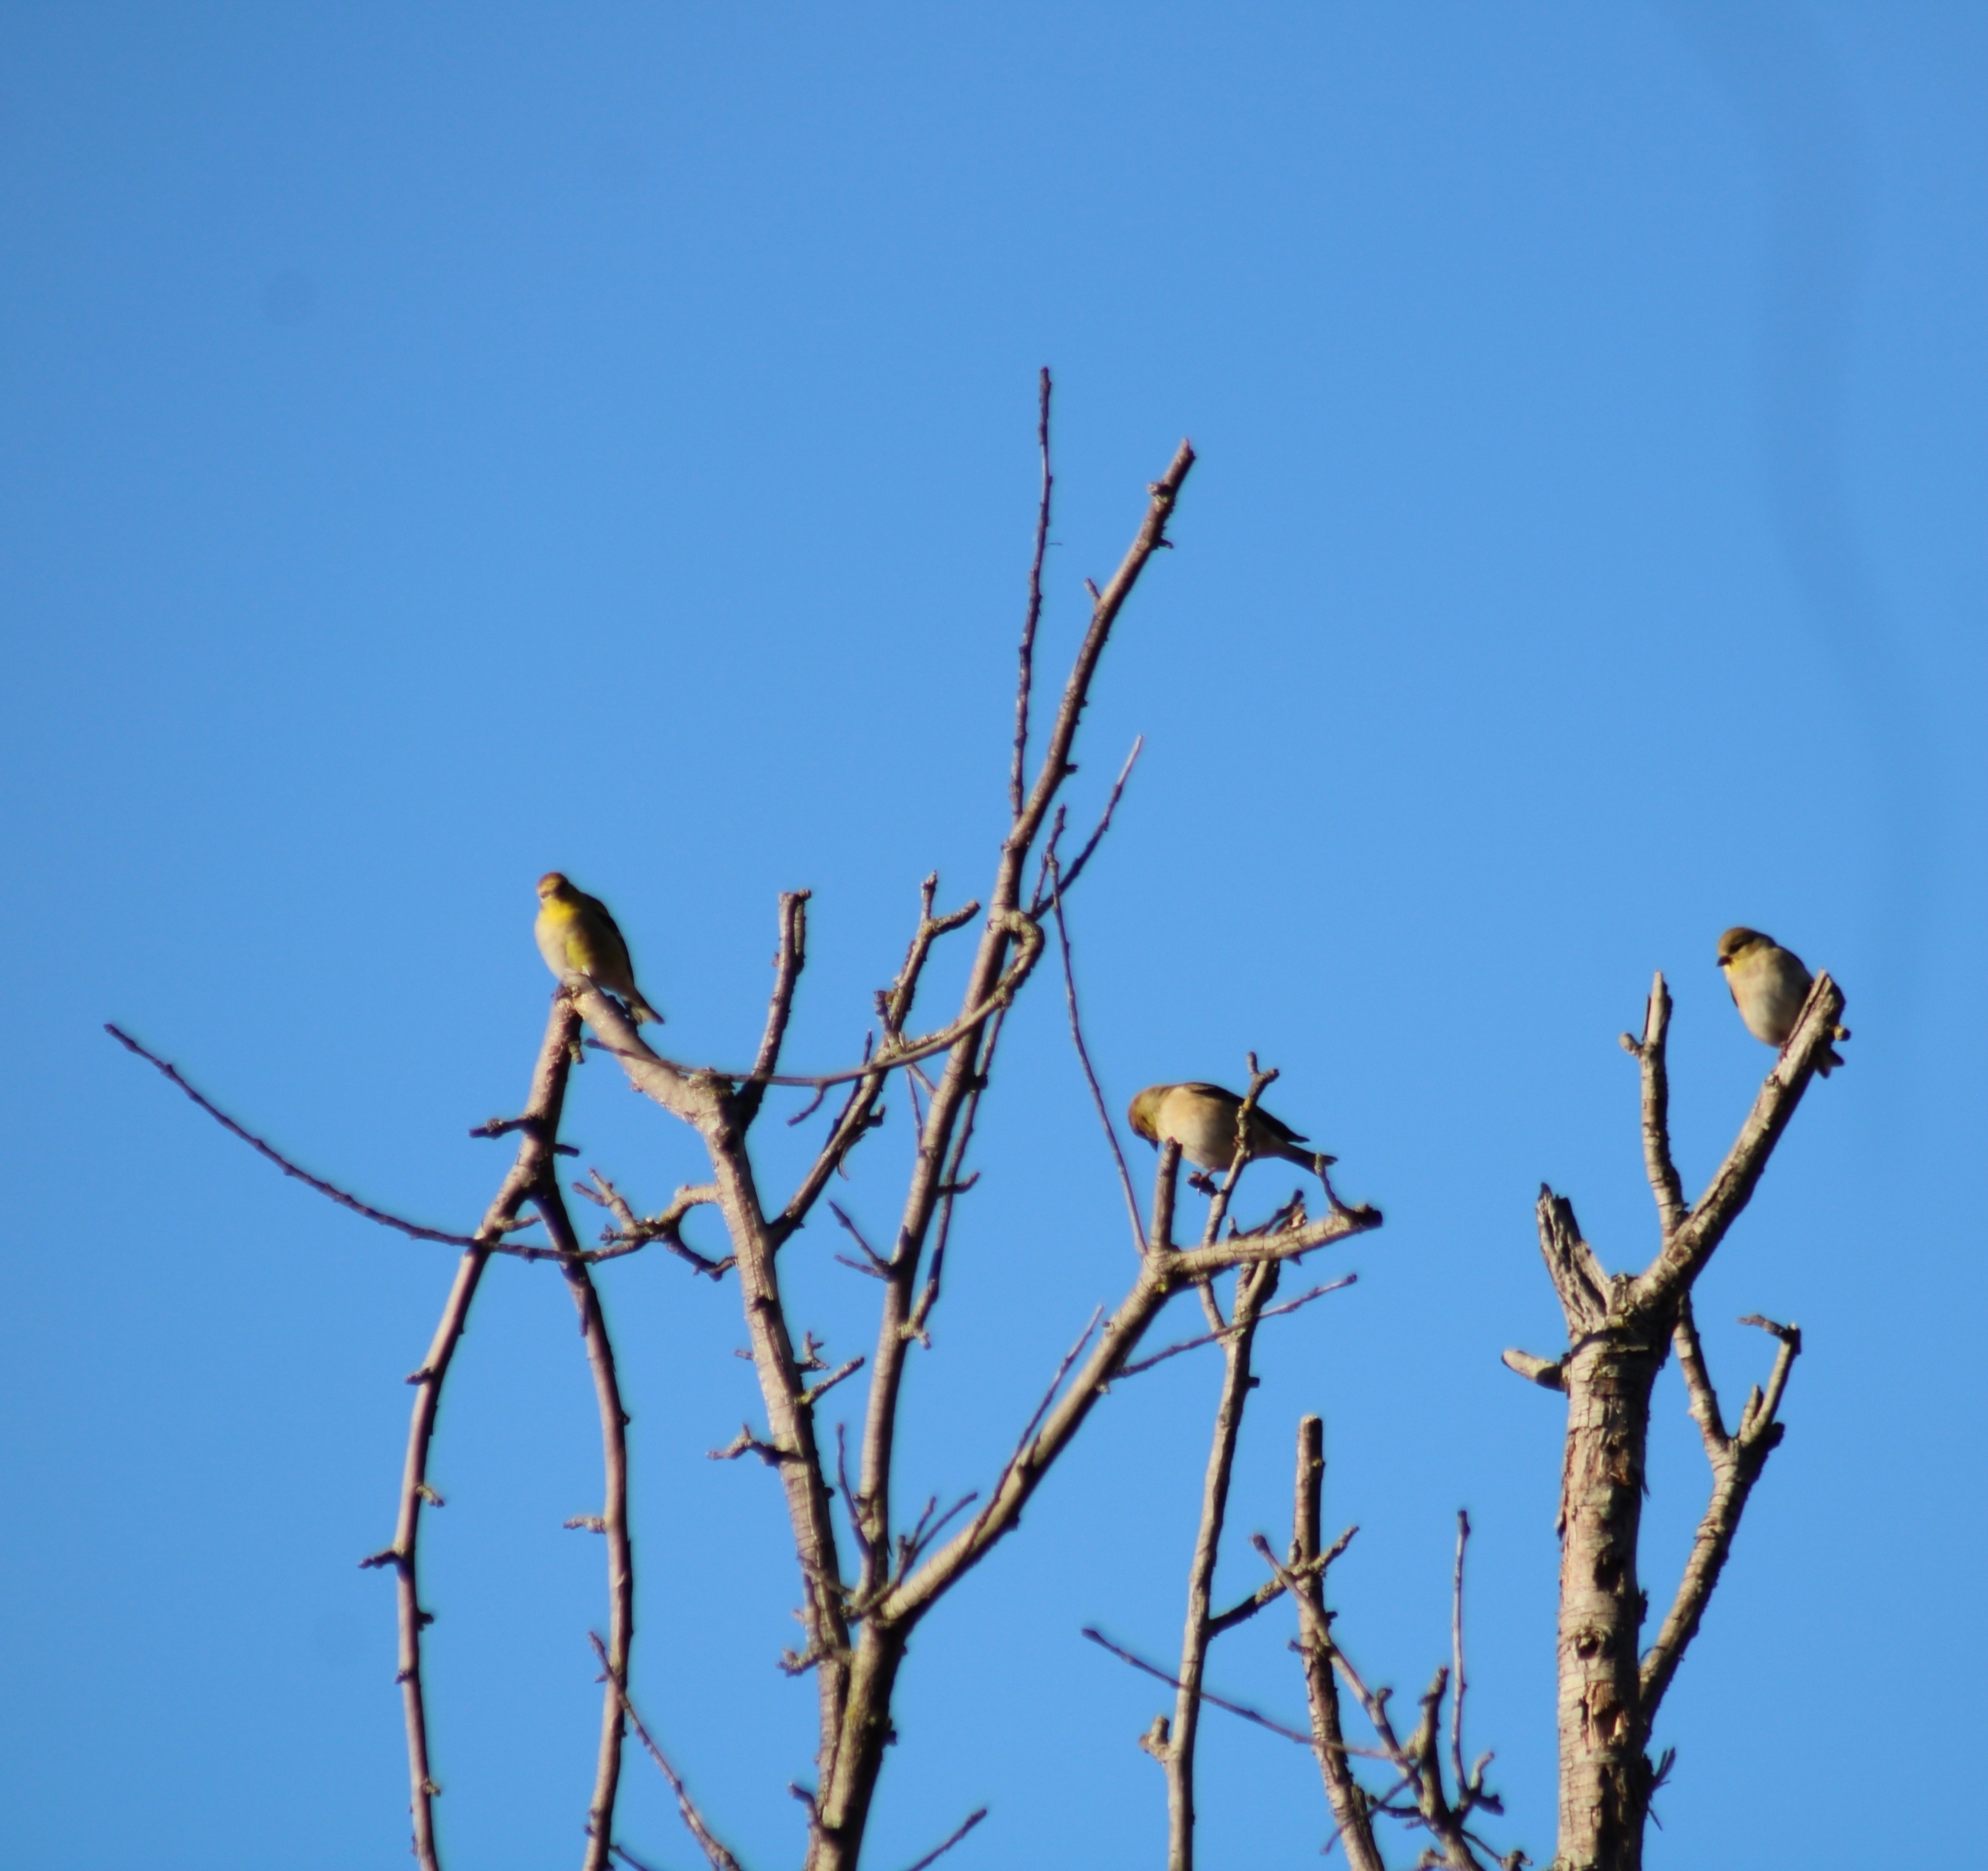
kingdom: Animalia
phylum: Chordata
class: Aves
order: Passeriformes
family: Fringillidae
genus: Spinus
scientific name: Spinus tristis
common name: American goldfinch
